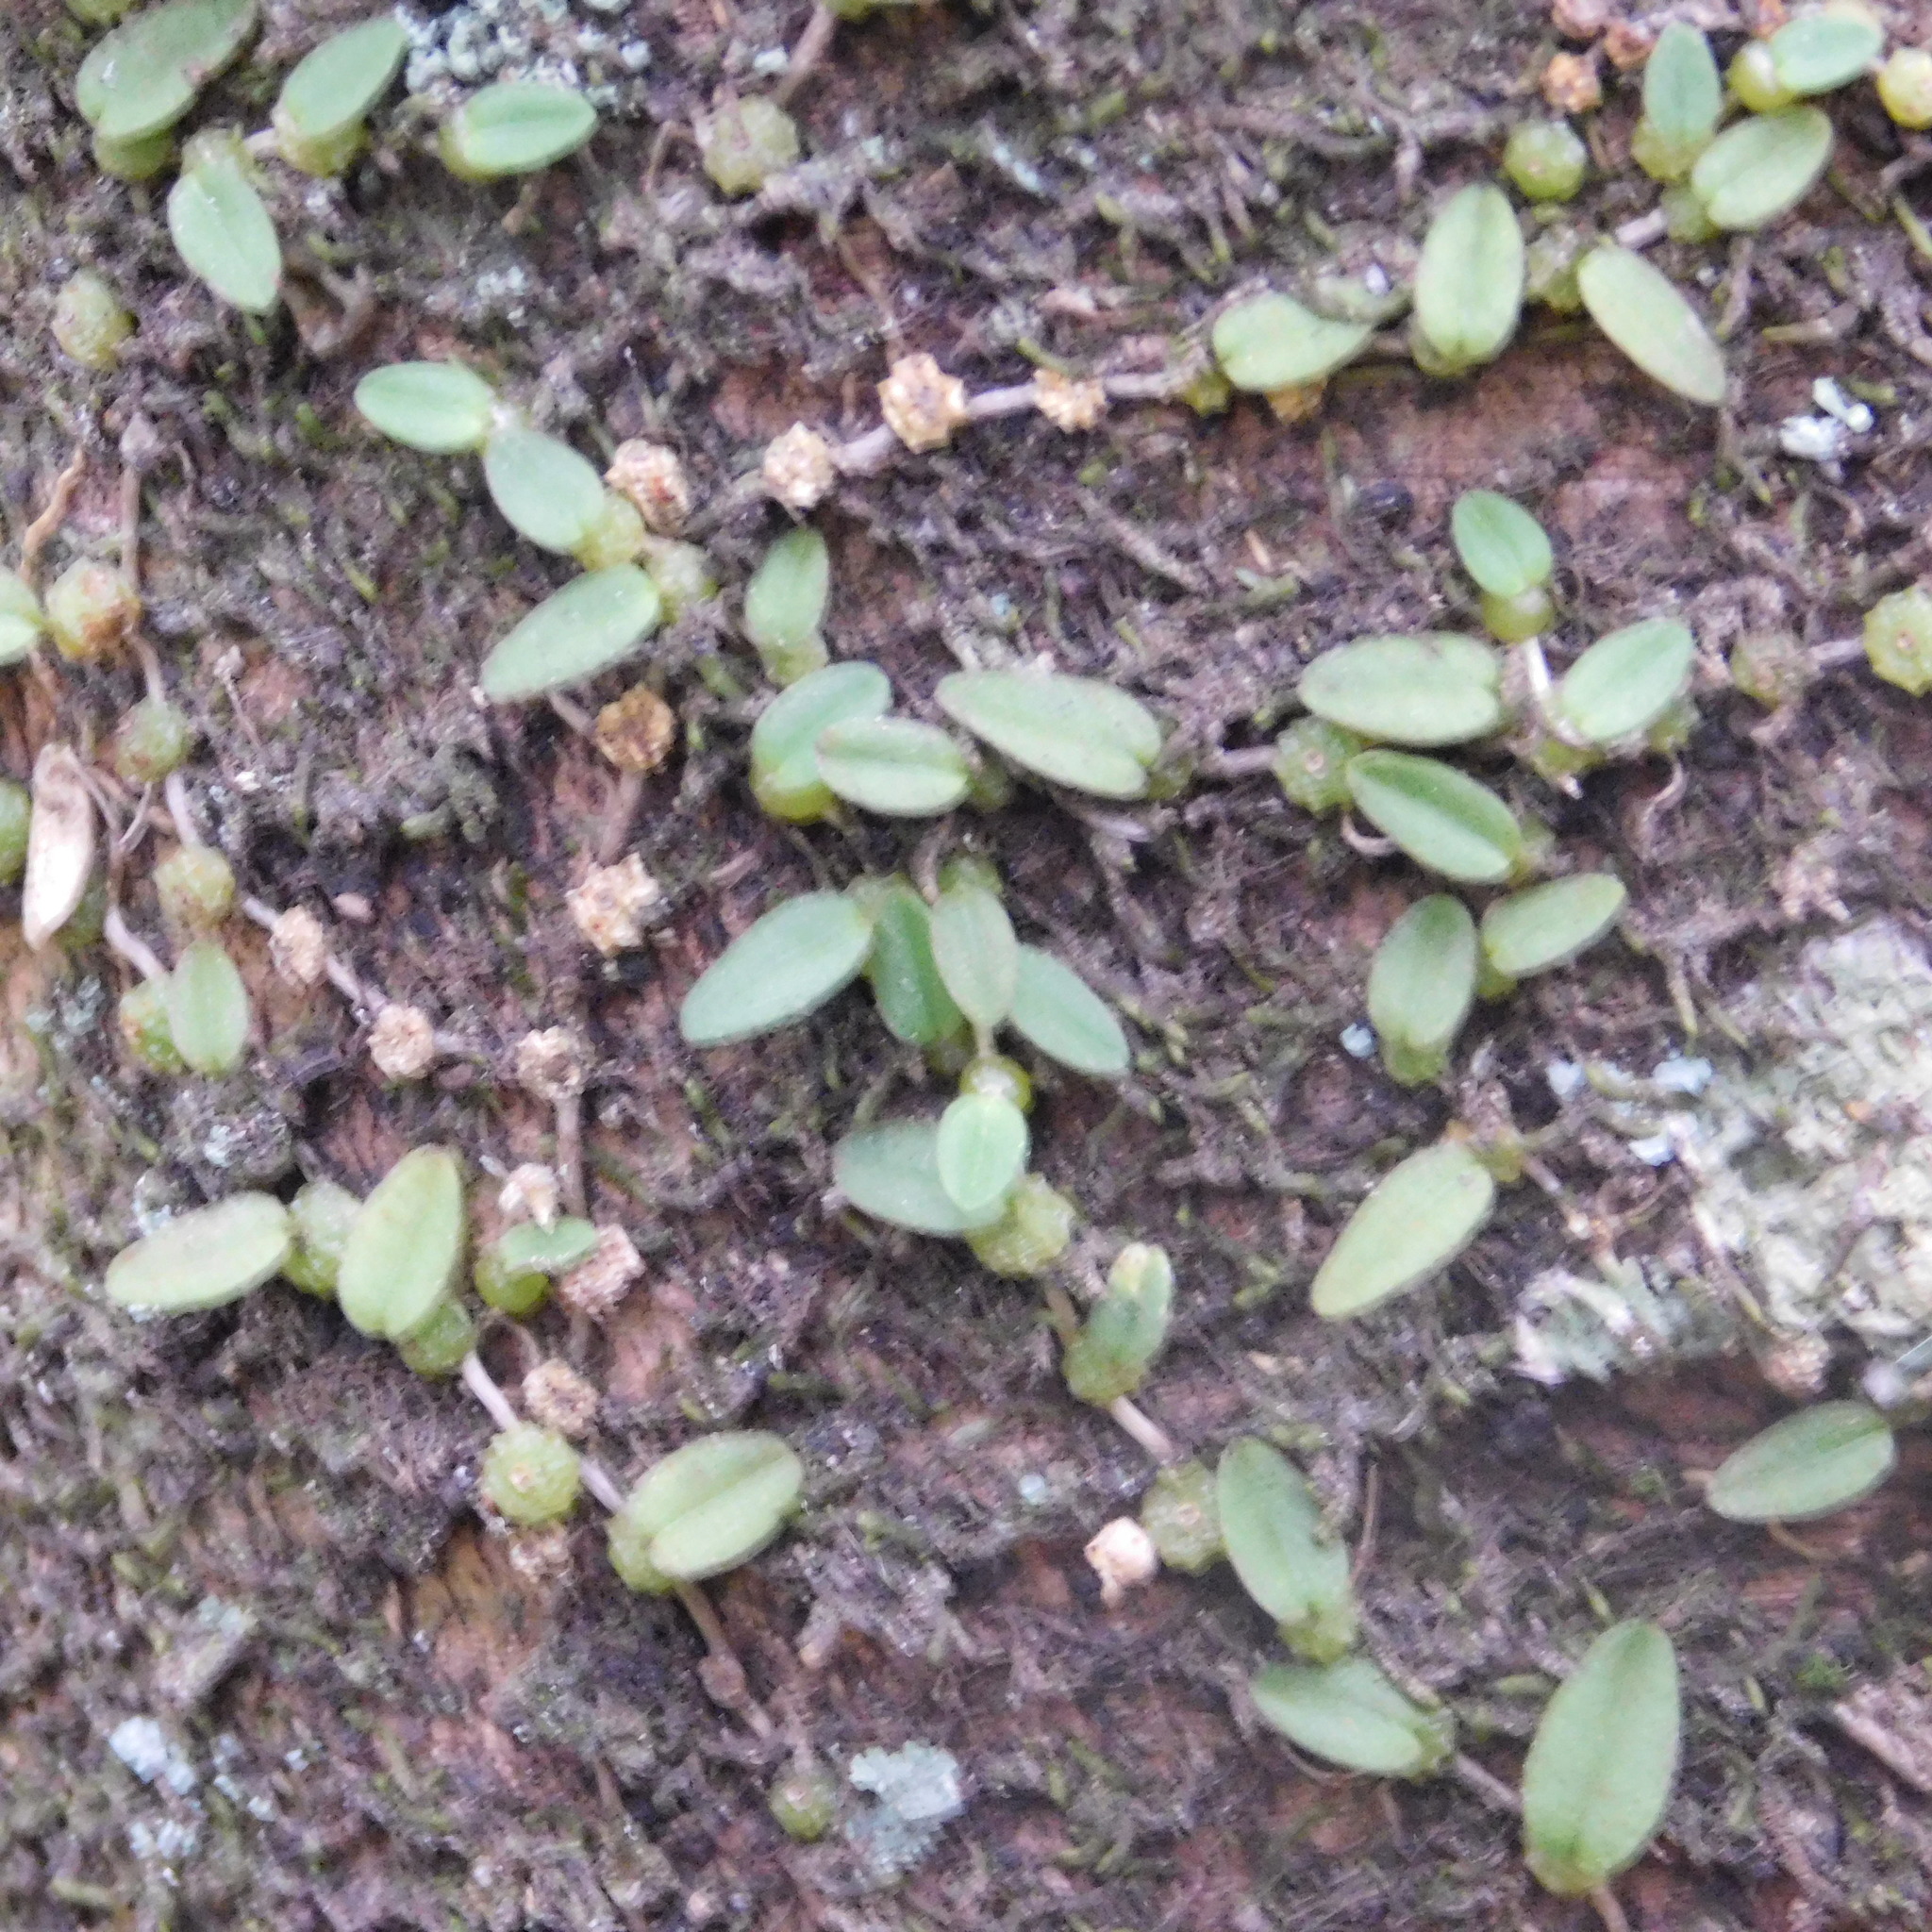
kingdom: Plantae
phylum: Tracheophyta
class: Liliopsida
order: Asparagales
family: Orchidaceae
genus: Bulbophyllum
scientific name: Bulbophyllum pygmaeum
